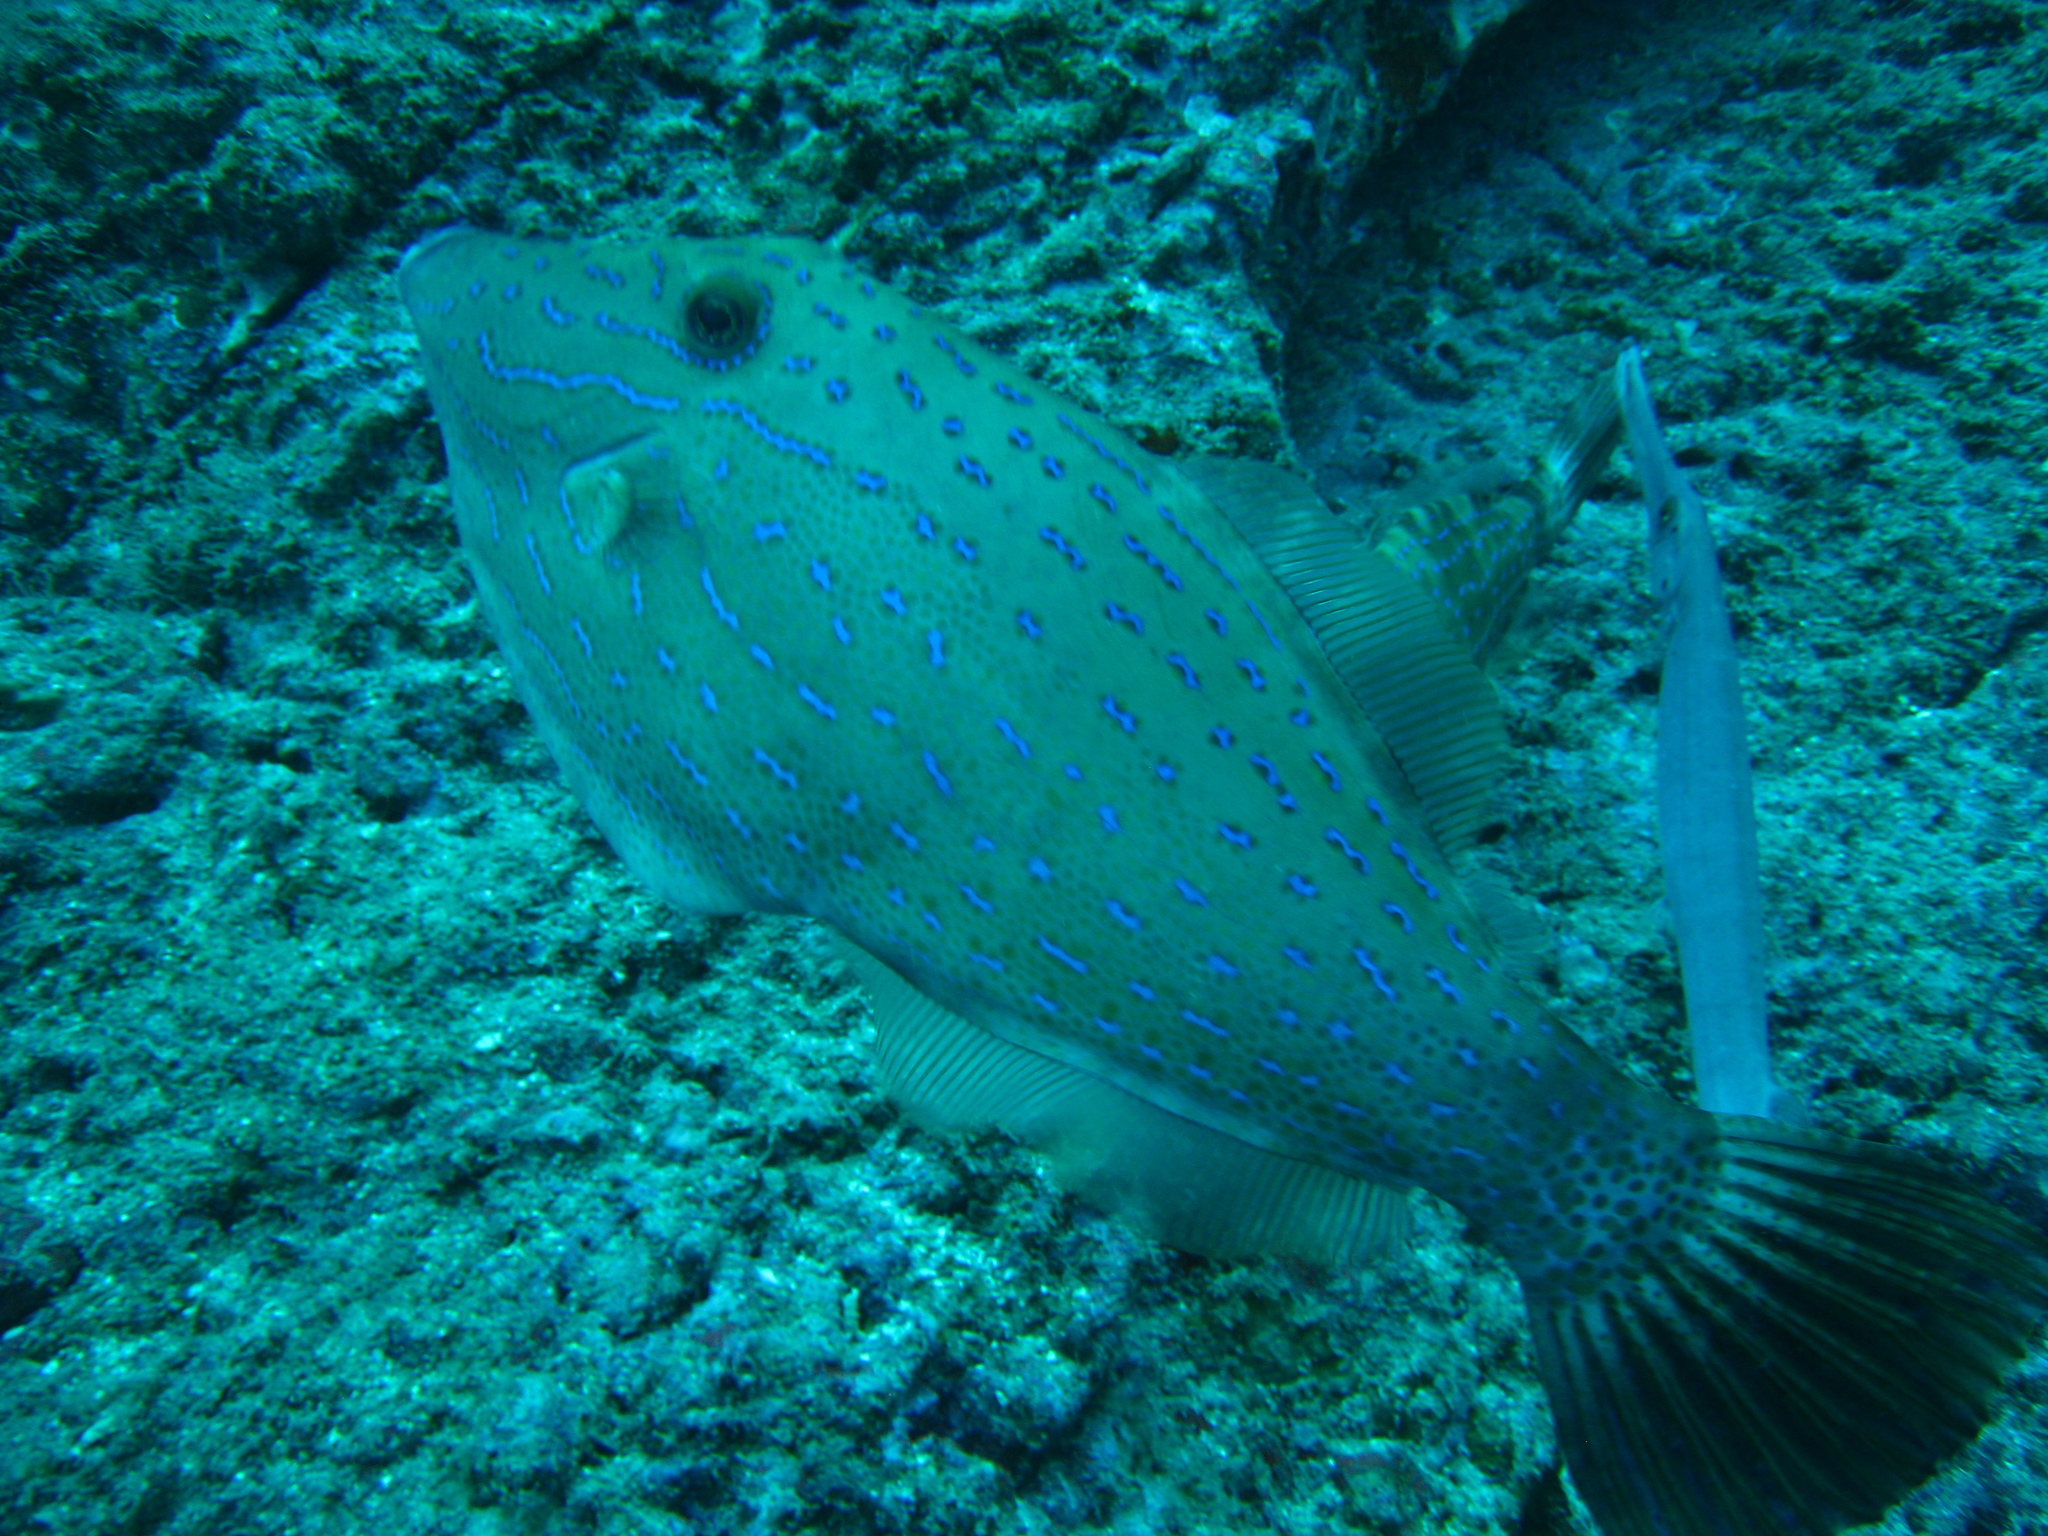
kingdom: Animalia
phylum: Chordata
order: Tetraodontiformes
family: Monacanthidae
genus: Aluterus
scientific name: Aluterus scriptus
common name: Scribbled leatherjacket filefish
